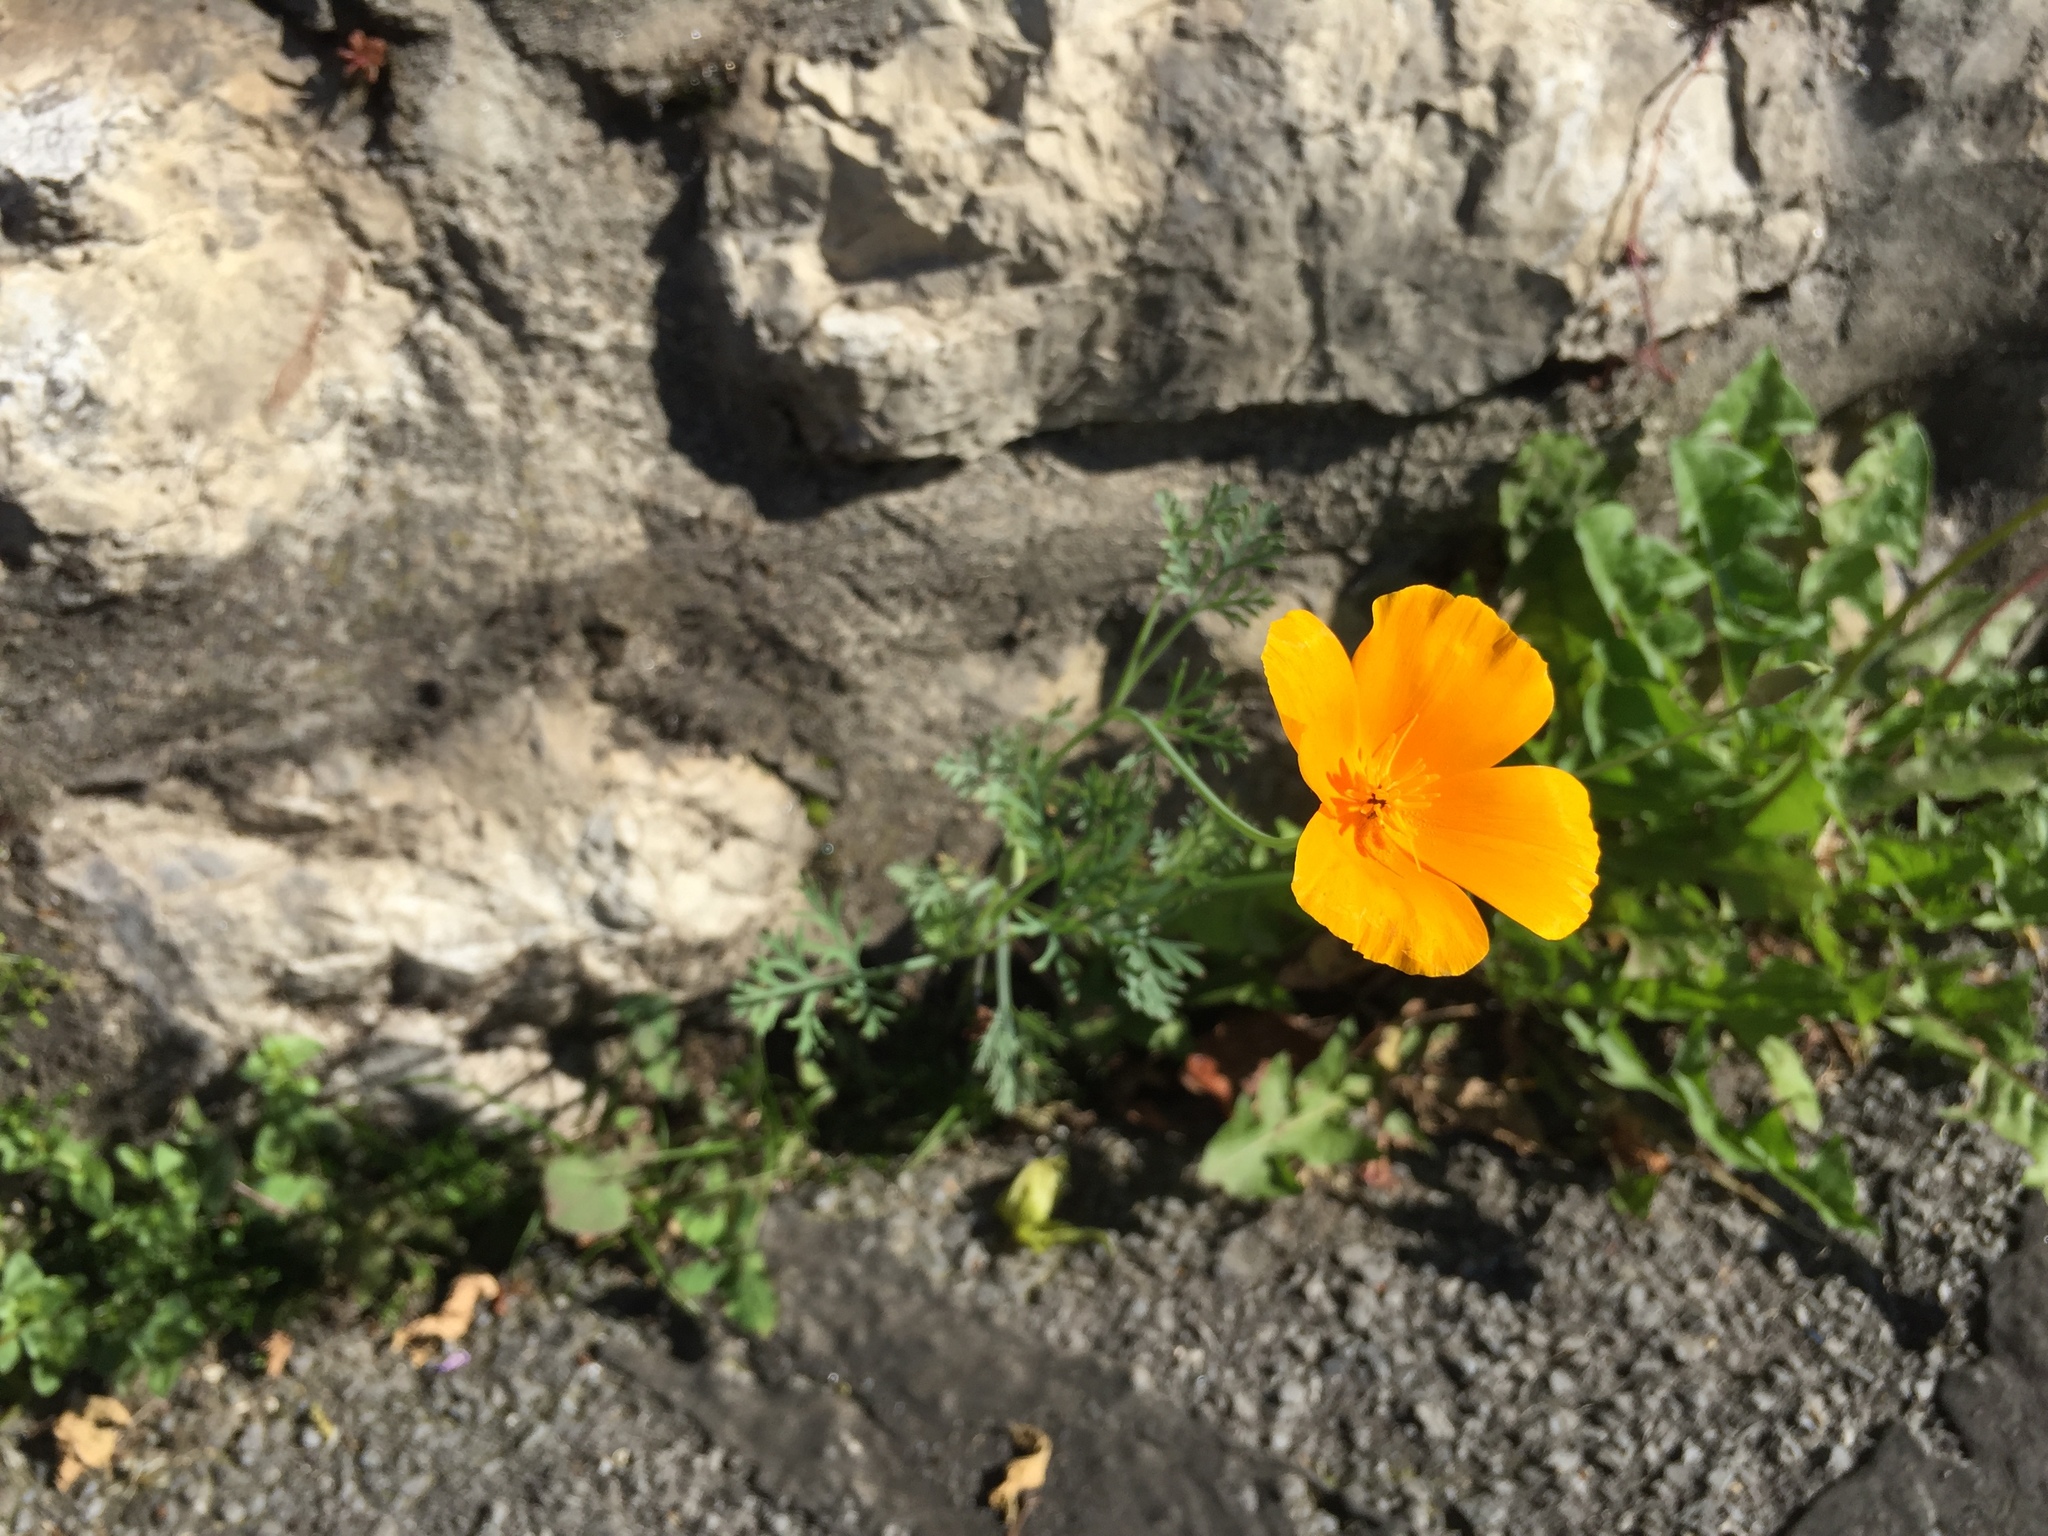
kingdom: Plantae
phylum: Tracheophyta
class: Magnoliopsida
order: Ranunculales
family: Papaveraceae
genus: Eschscholzia
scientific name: Eschscholzia californica
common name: California poppy
